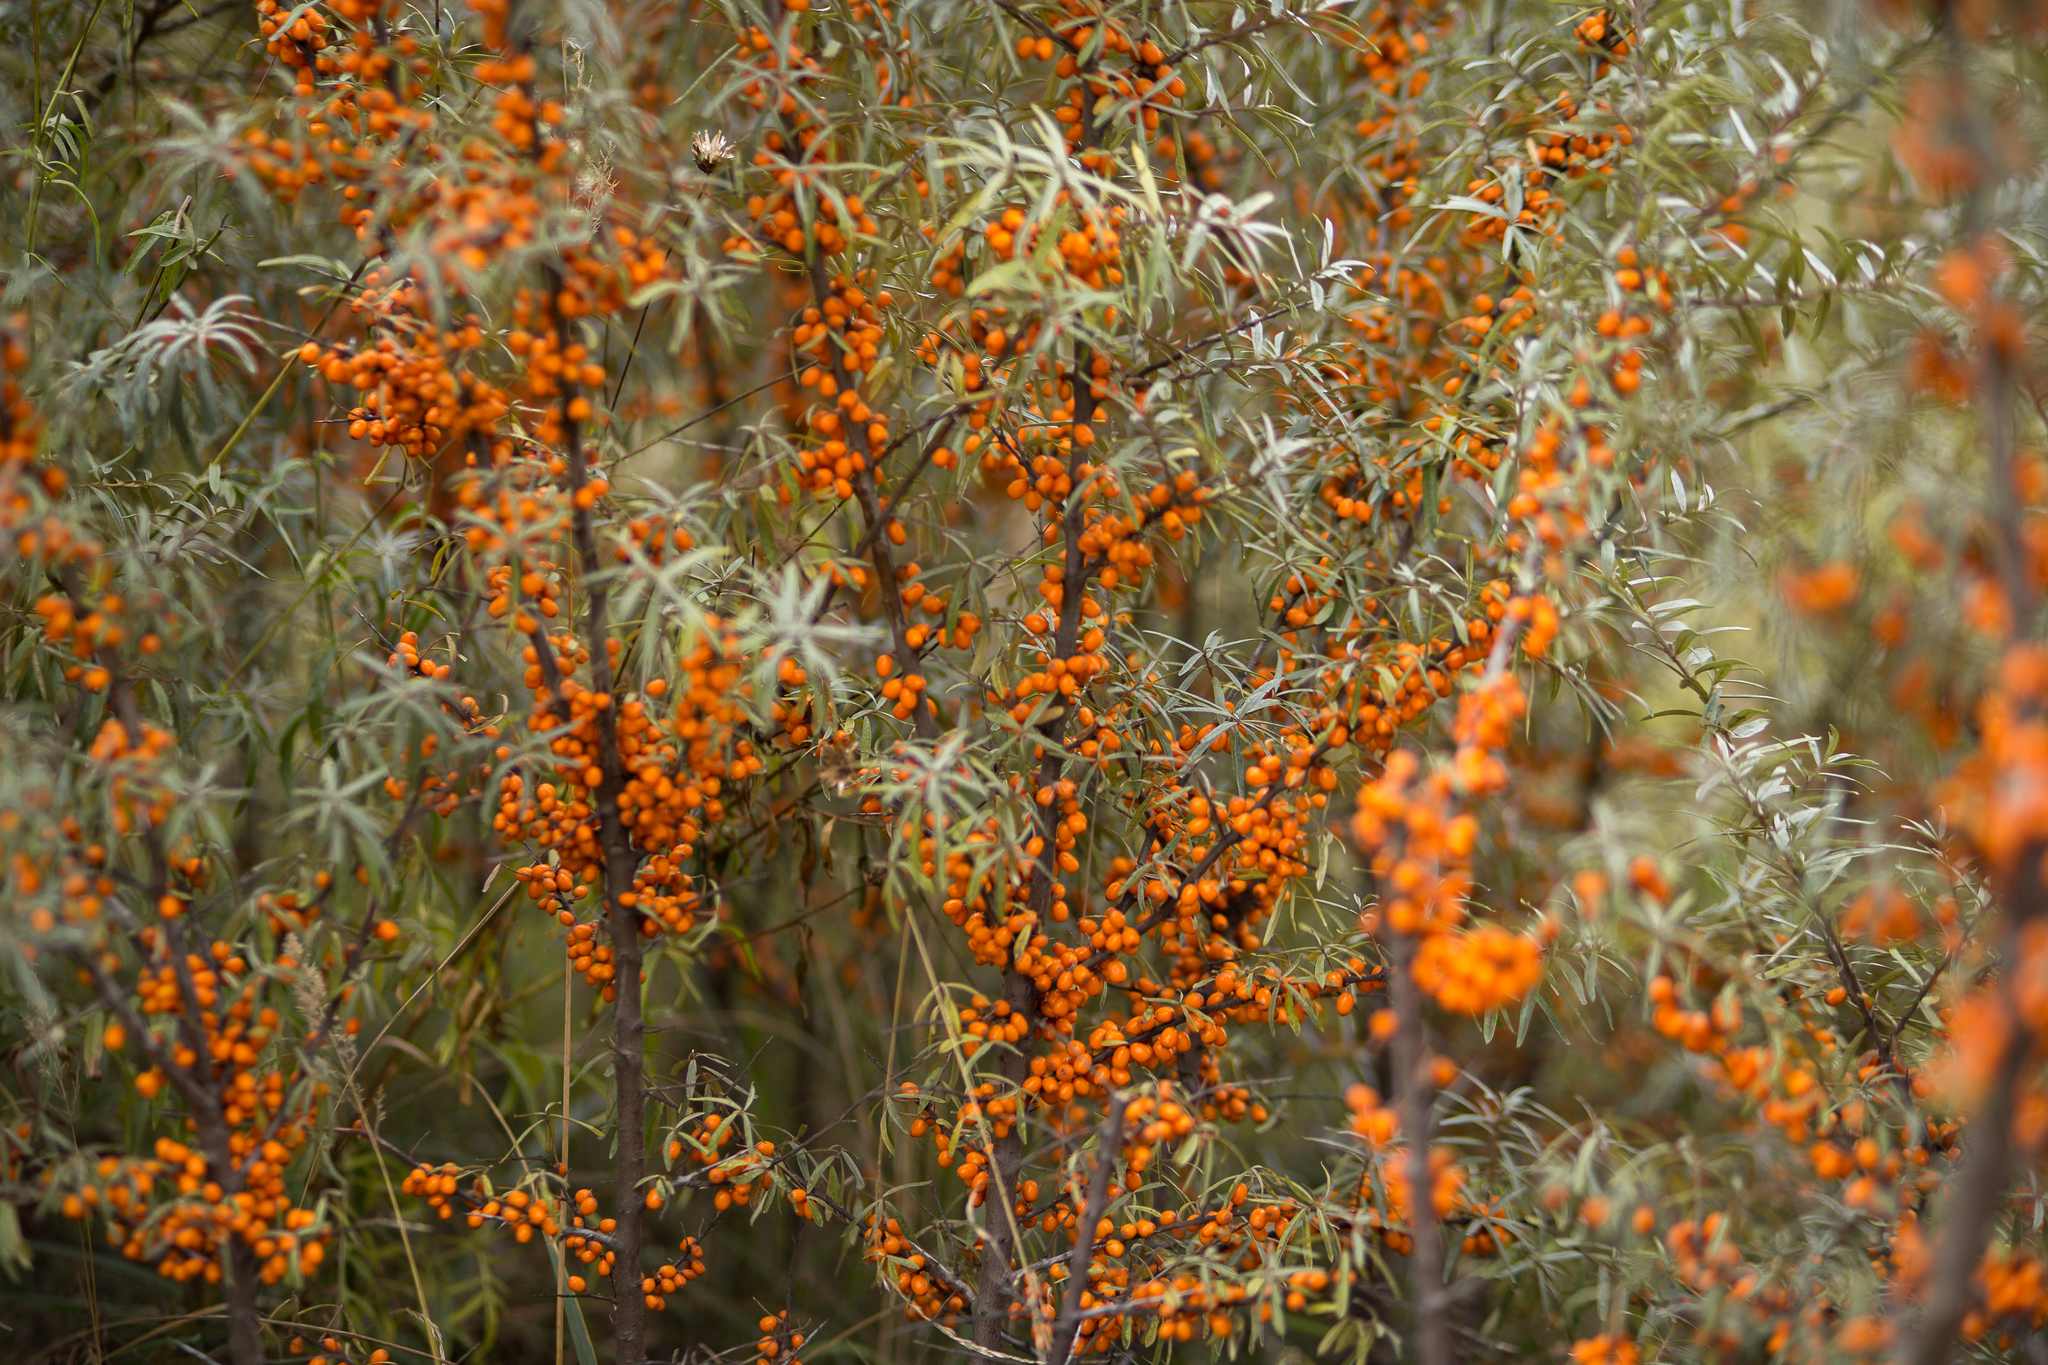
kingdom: Plantae
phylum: Tracheophyta
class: Magnoliopsida
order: Rosales
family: Elaeagnaceae
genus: Hippophae
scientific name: Hippophae rhamnoides
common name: Sea-buckthorn
